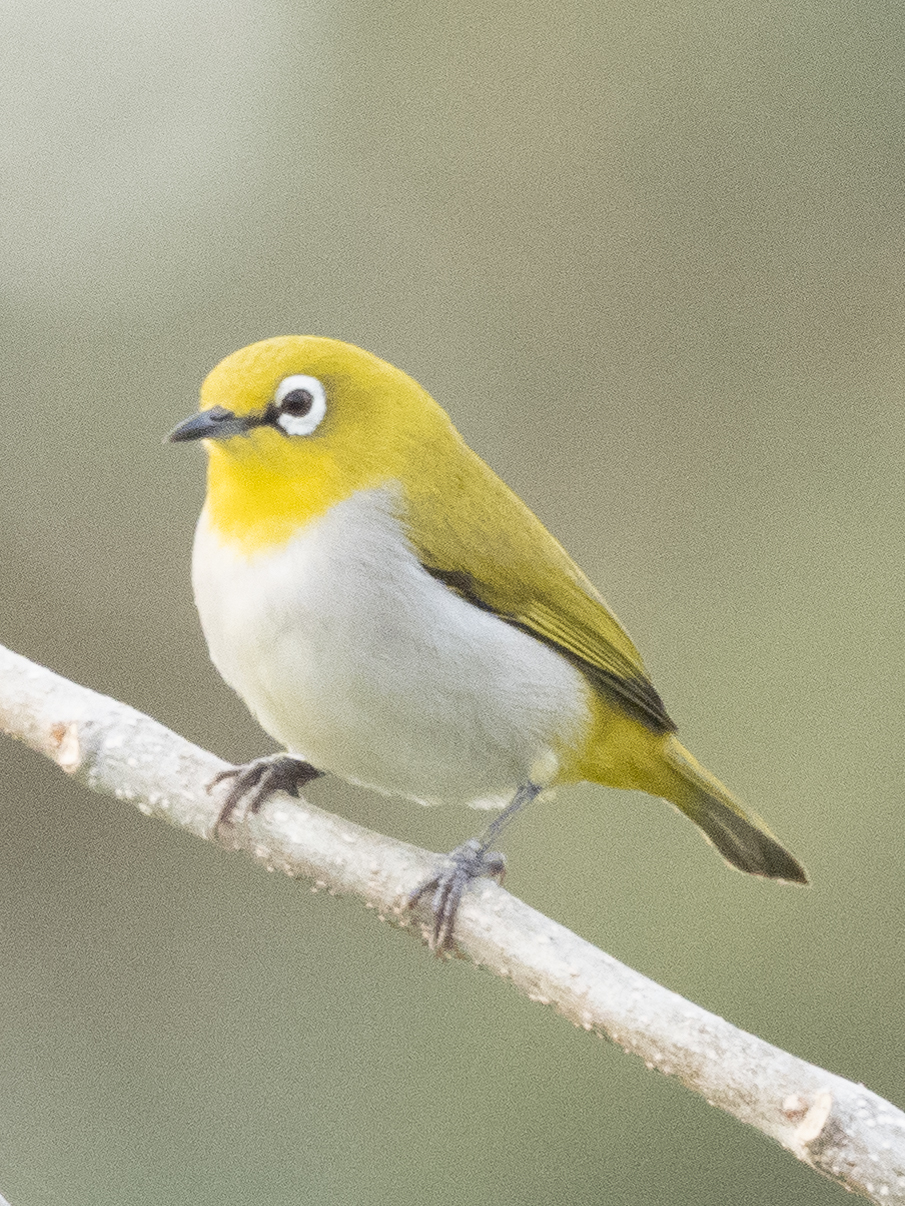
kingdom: Animalia
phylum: Chordata
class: Aves
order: Passeriformes
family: Zosteropidae
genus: Zosterops
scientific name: Zosterops palpebrosus
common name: Oriental white-eye
